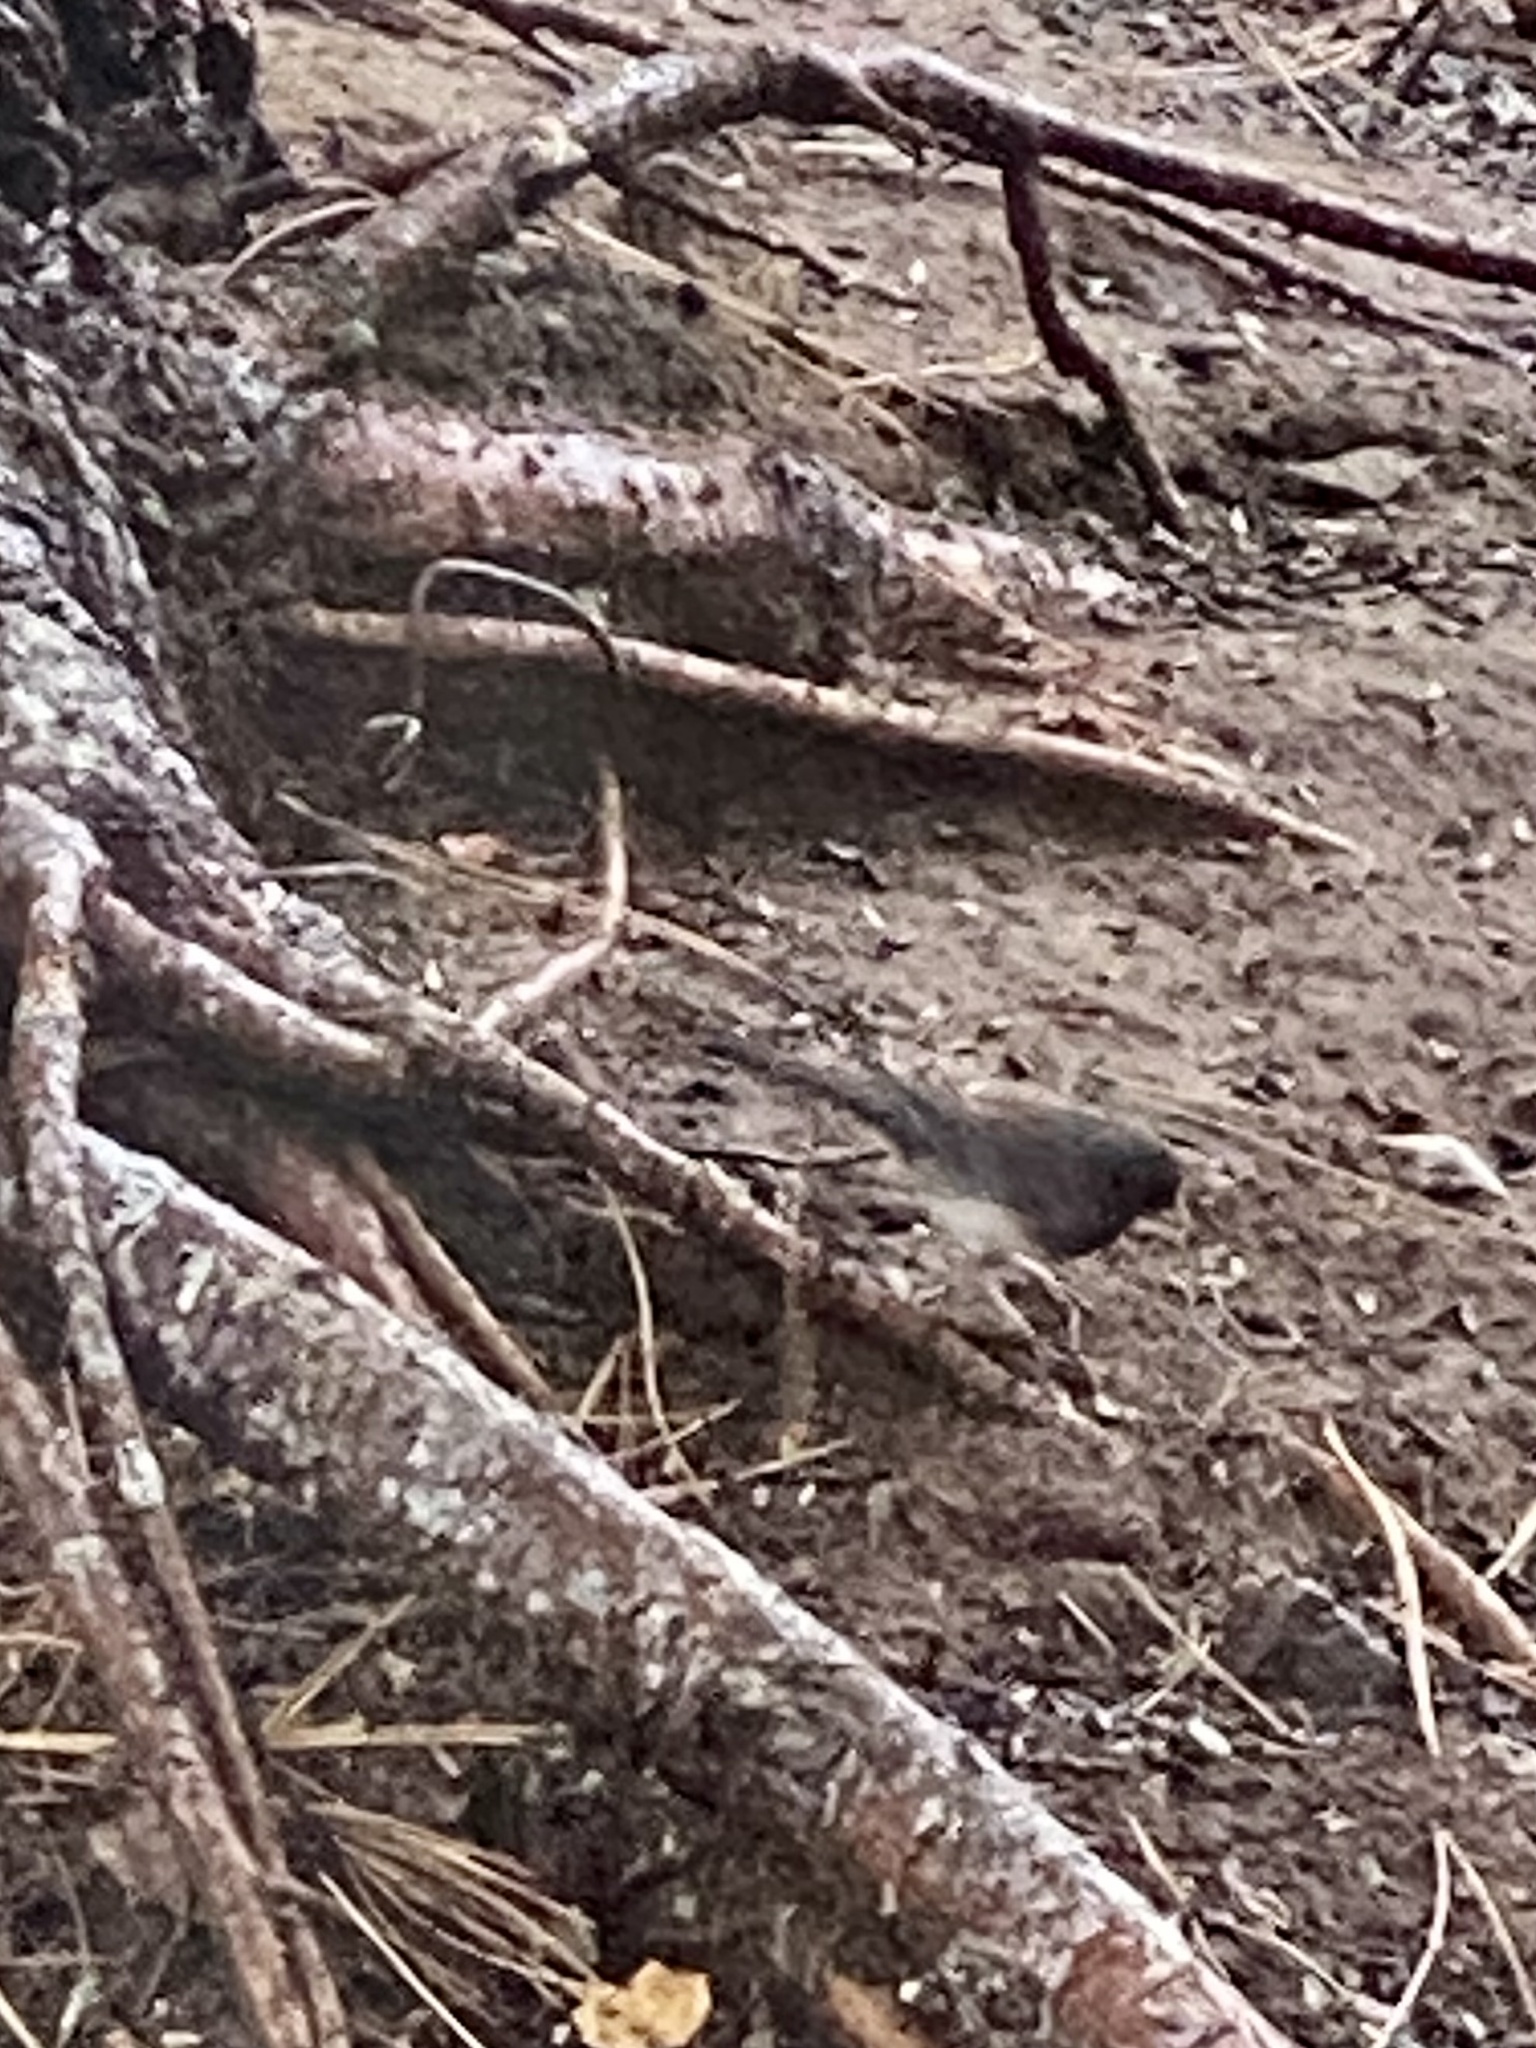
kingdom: Animalia
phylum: Chordata
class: Aves
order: Passeriformes
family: Passerellidae
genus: Junco
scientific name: Junco hyemalis
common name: Dark-eyed junco
